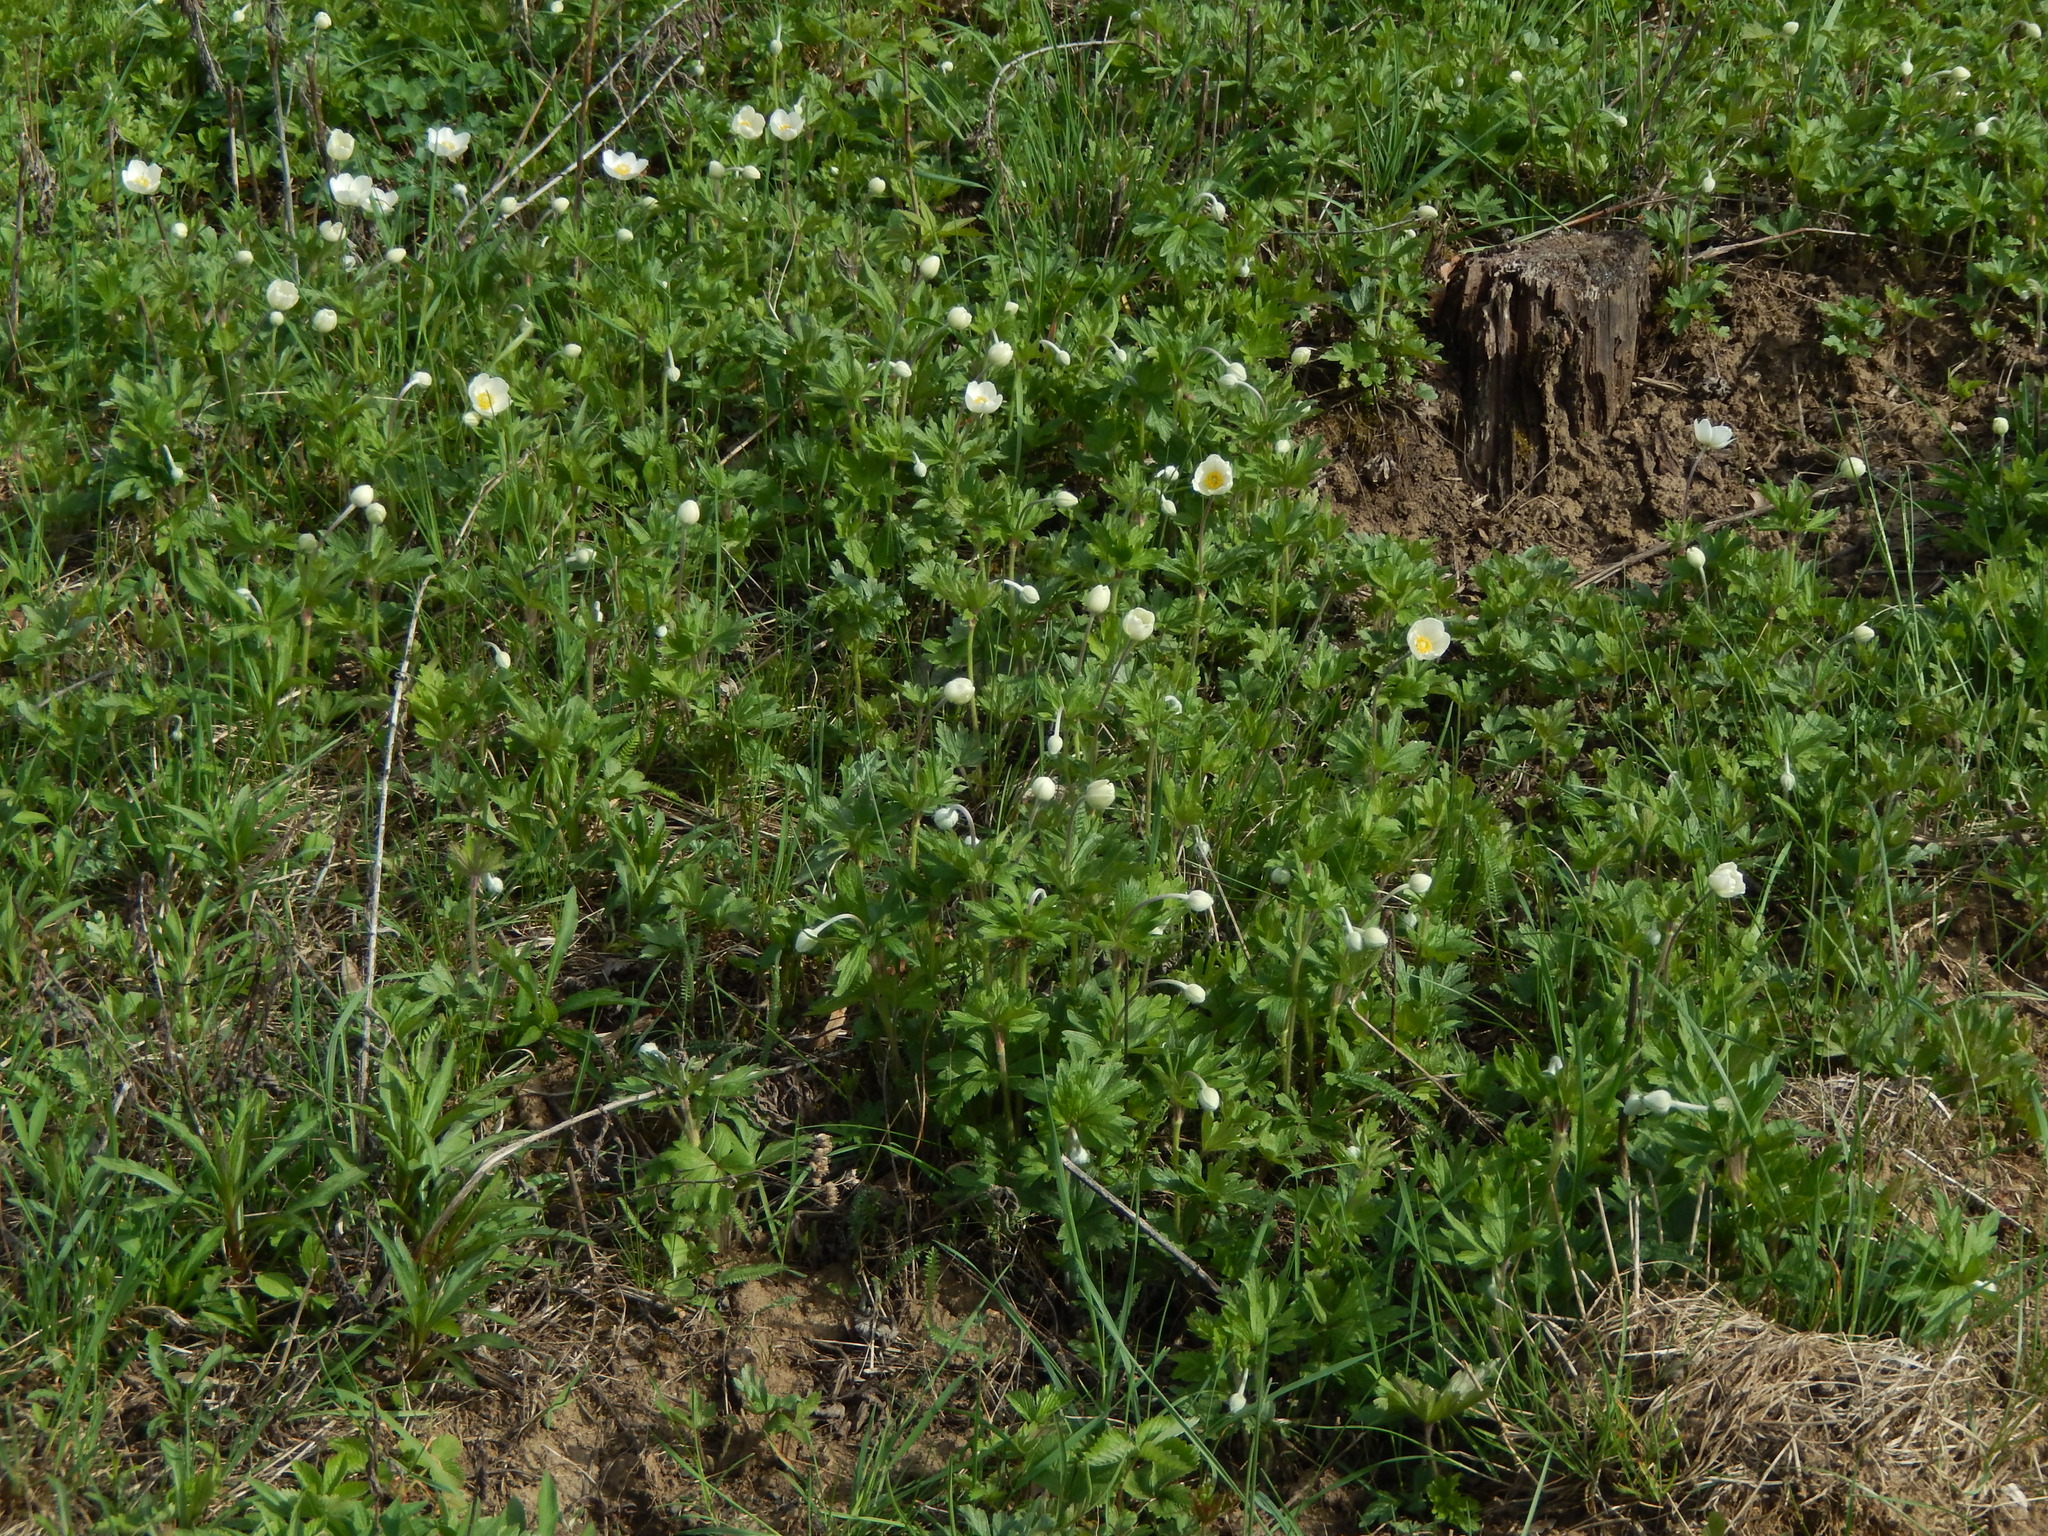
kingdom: Plantae
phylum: Tracheophyta
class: Magnoliopsida
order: Ranunculales
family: Ranunculaceae
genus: Anemone
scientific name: Anemone sylvestris
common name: Snowdrop anemone
